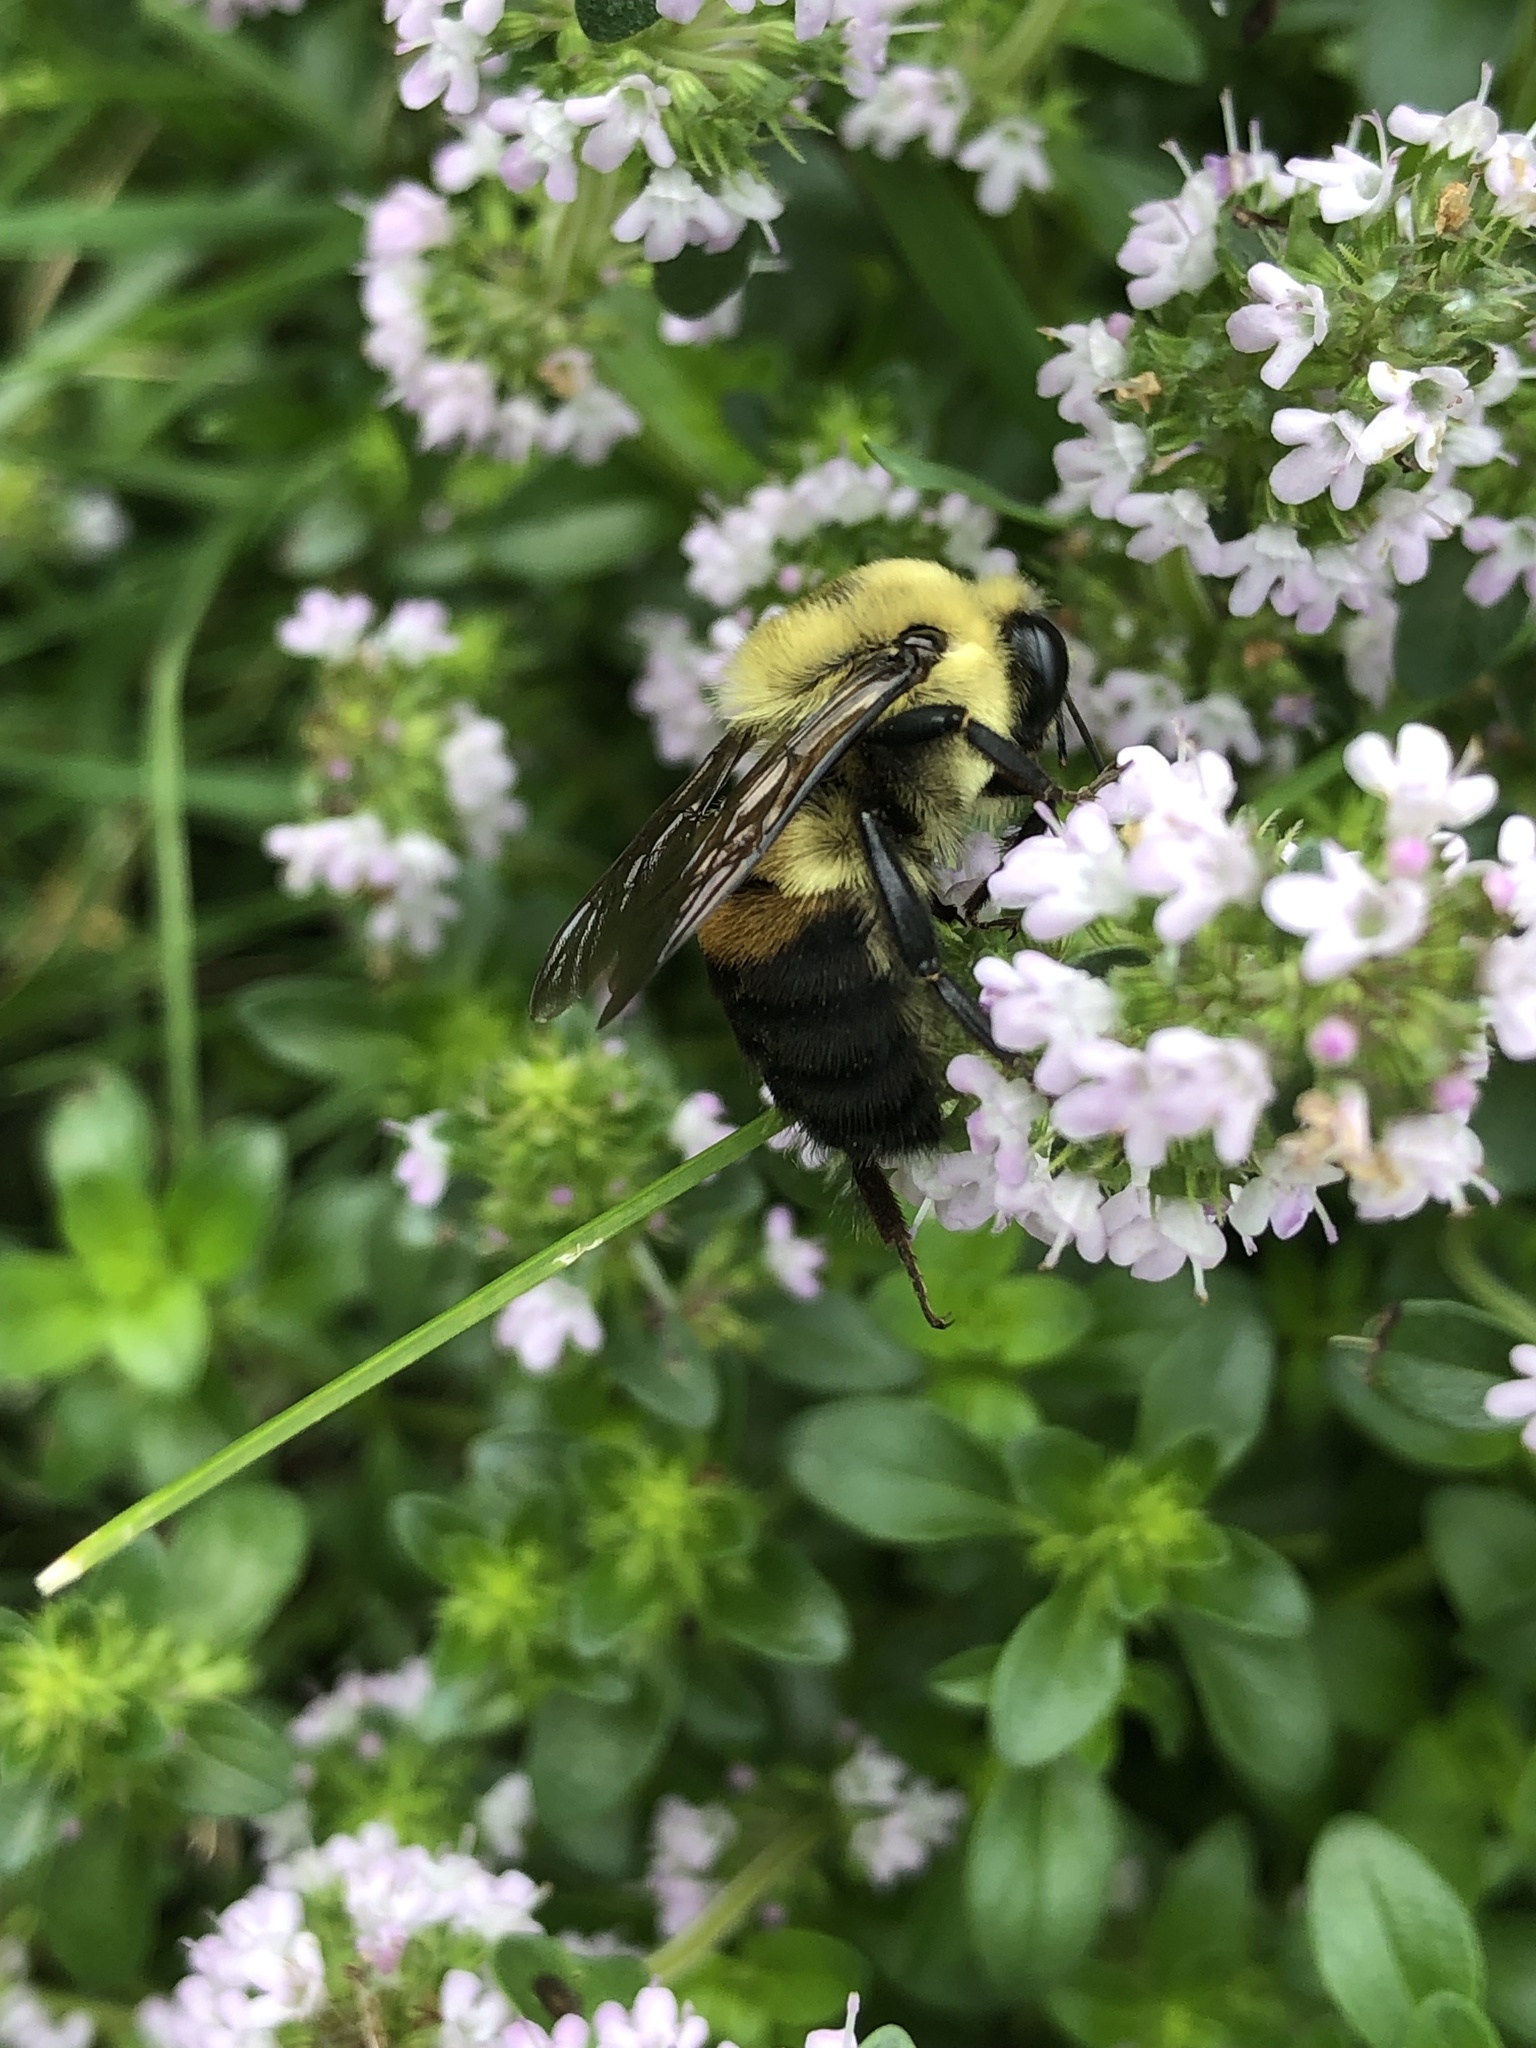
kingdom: Animalia
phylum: Arthropoda
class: Insecta
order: Hymenoptera
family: Apidae
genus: Bombus
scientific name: Bombus griseocollis
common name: Brown-belted bumble bee
